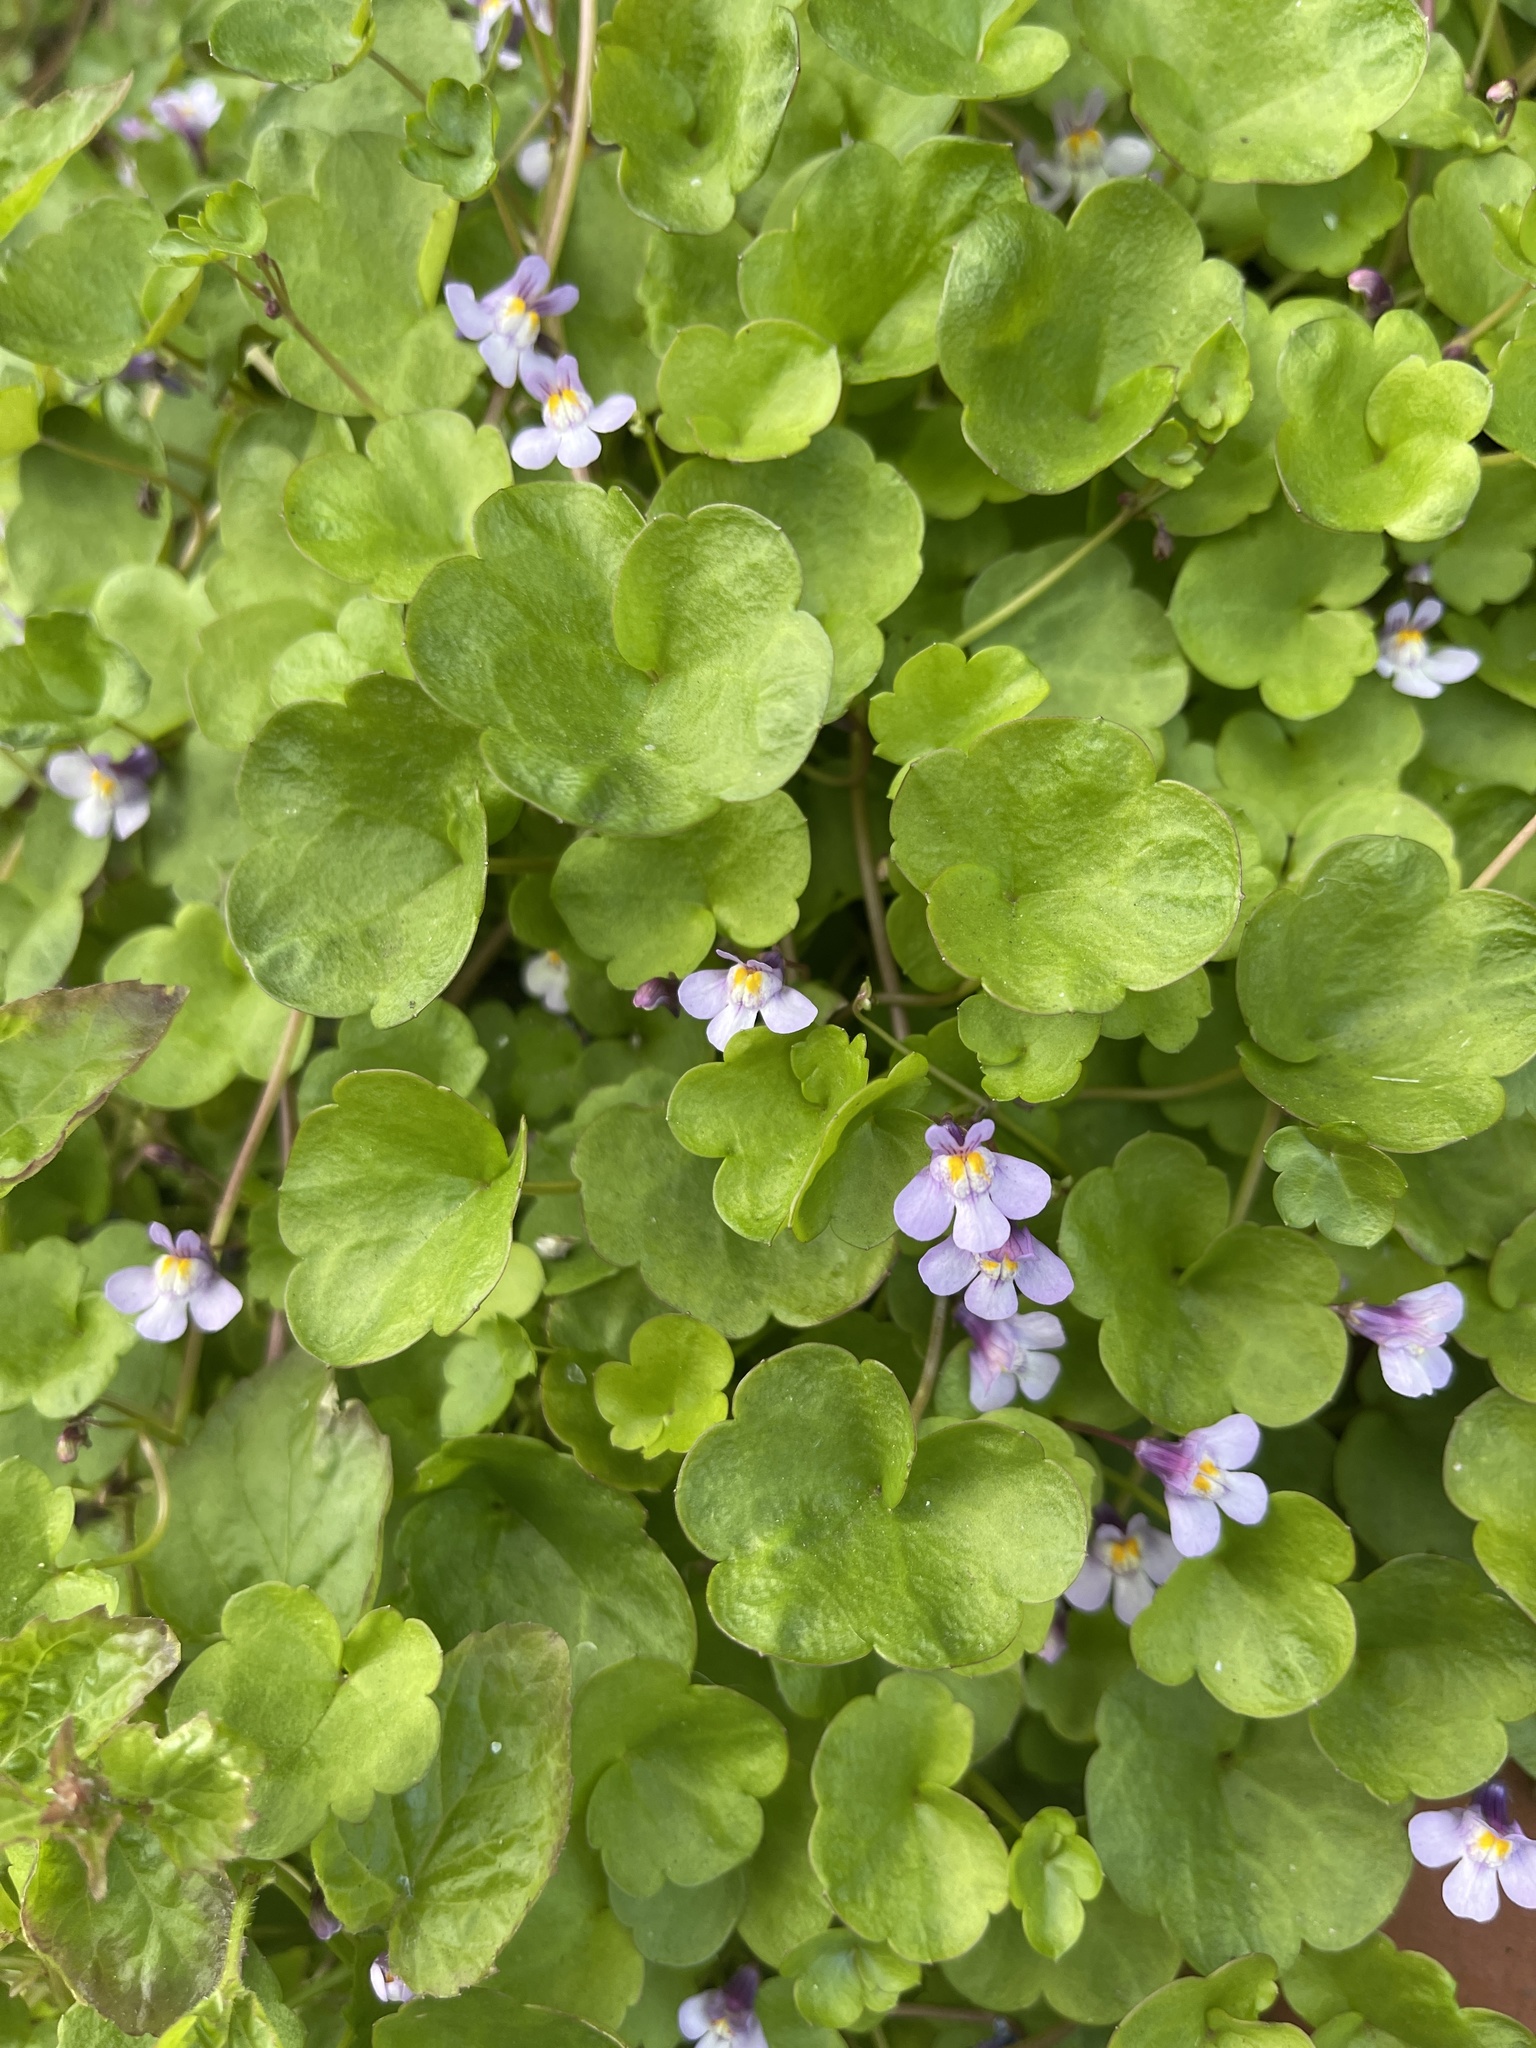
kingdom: Plantae
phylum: Tracheophyta
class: Magnoliopsida
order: Lamiales
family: Plantaginaceae
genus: Cymbalaria
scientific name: Cymbalaria muralis
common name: Ivy-leaved toadflax
